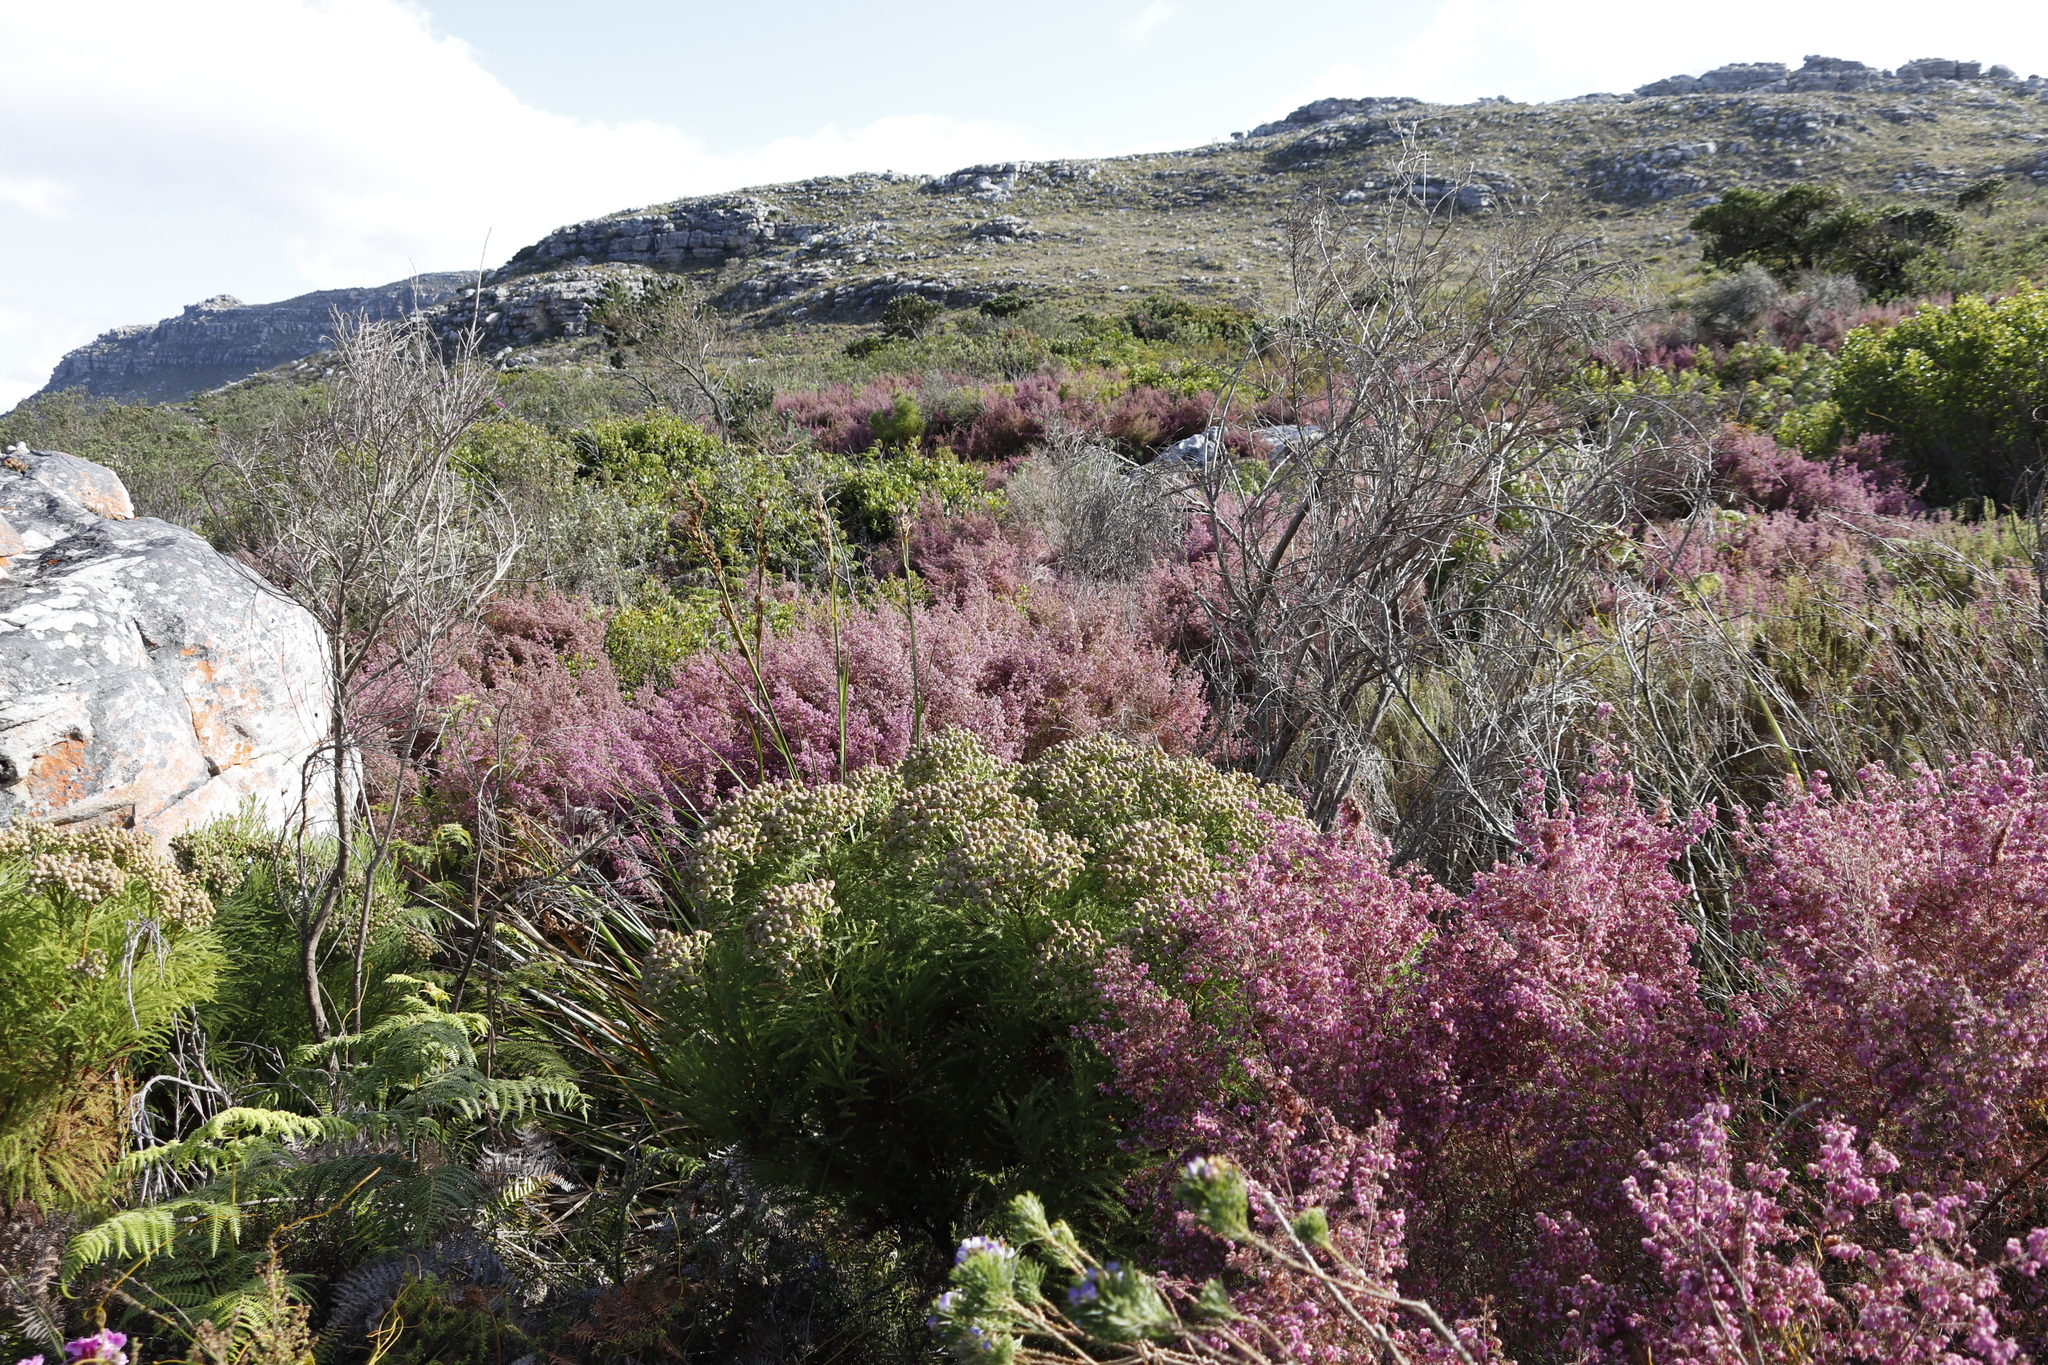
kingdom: Plantae
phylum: Tracheophyta
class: Magnoliopsida
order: Bruniales
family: Bruniaceae
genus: Berzelia
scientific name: Berzelia lanuginosa
